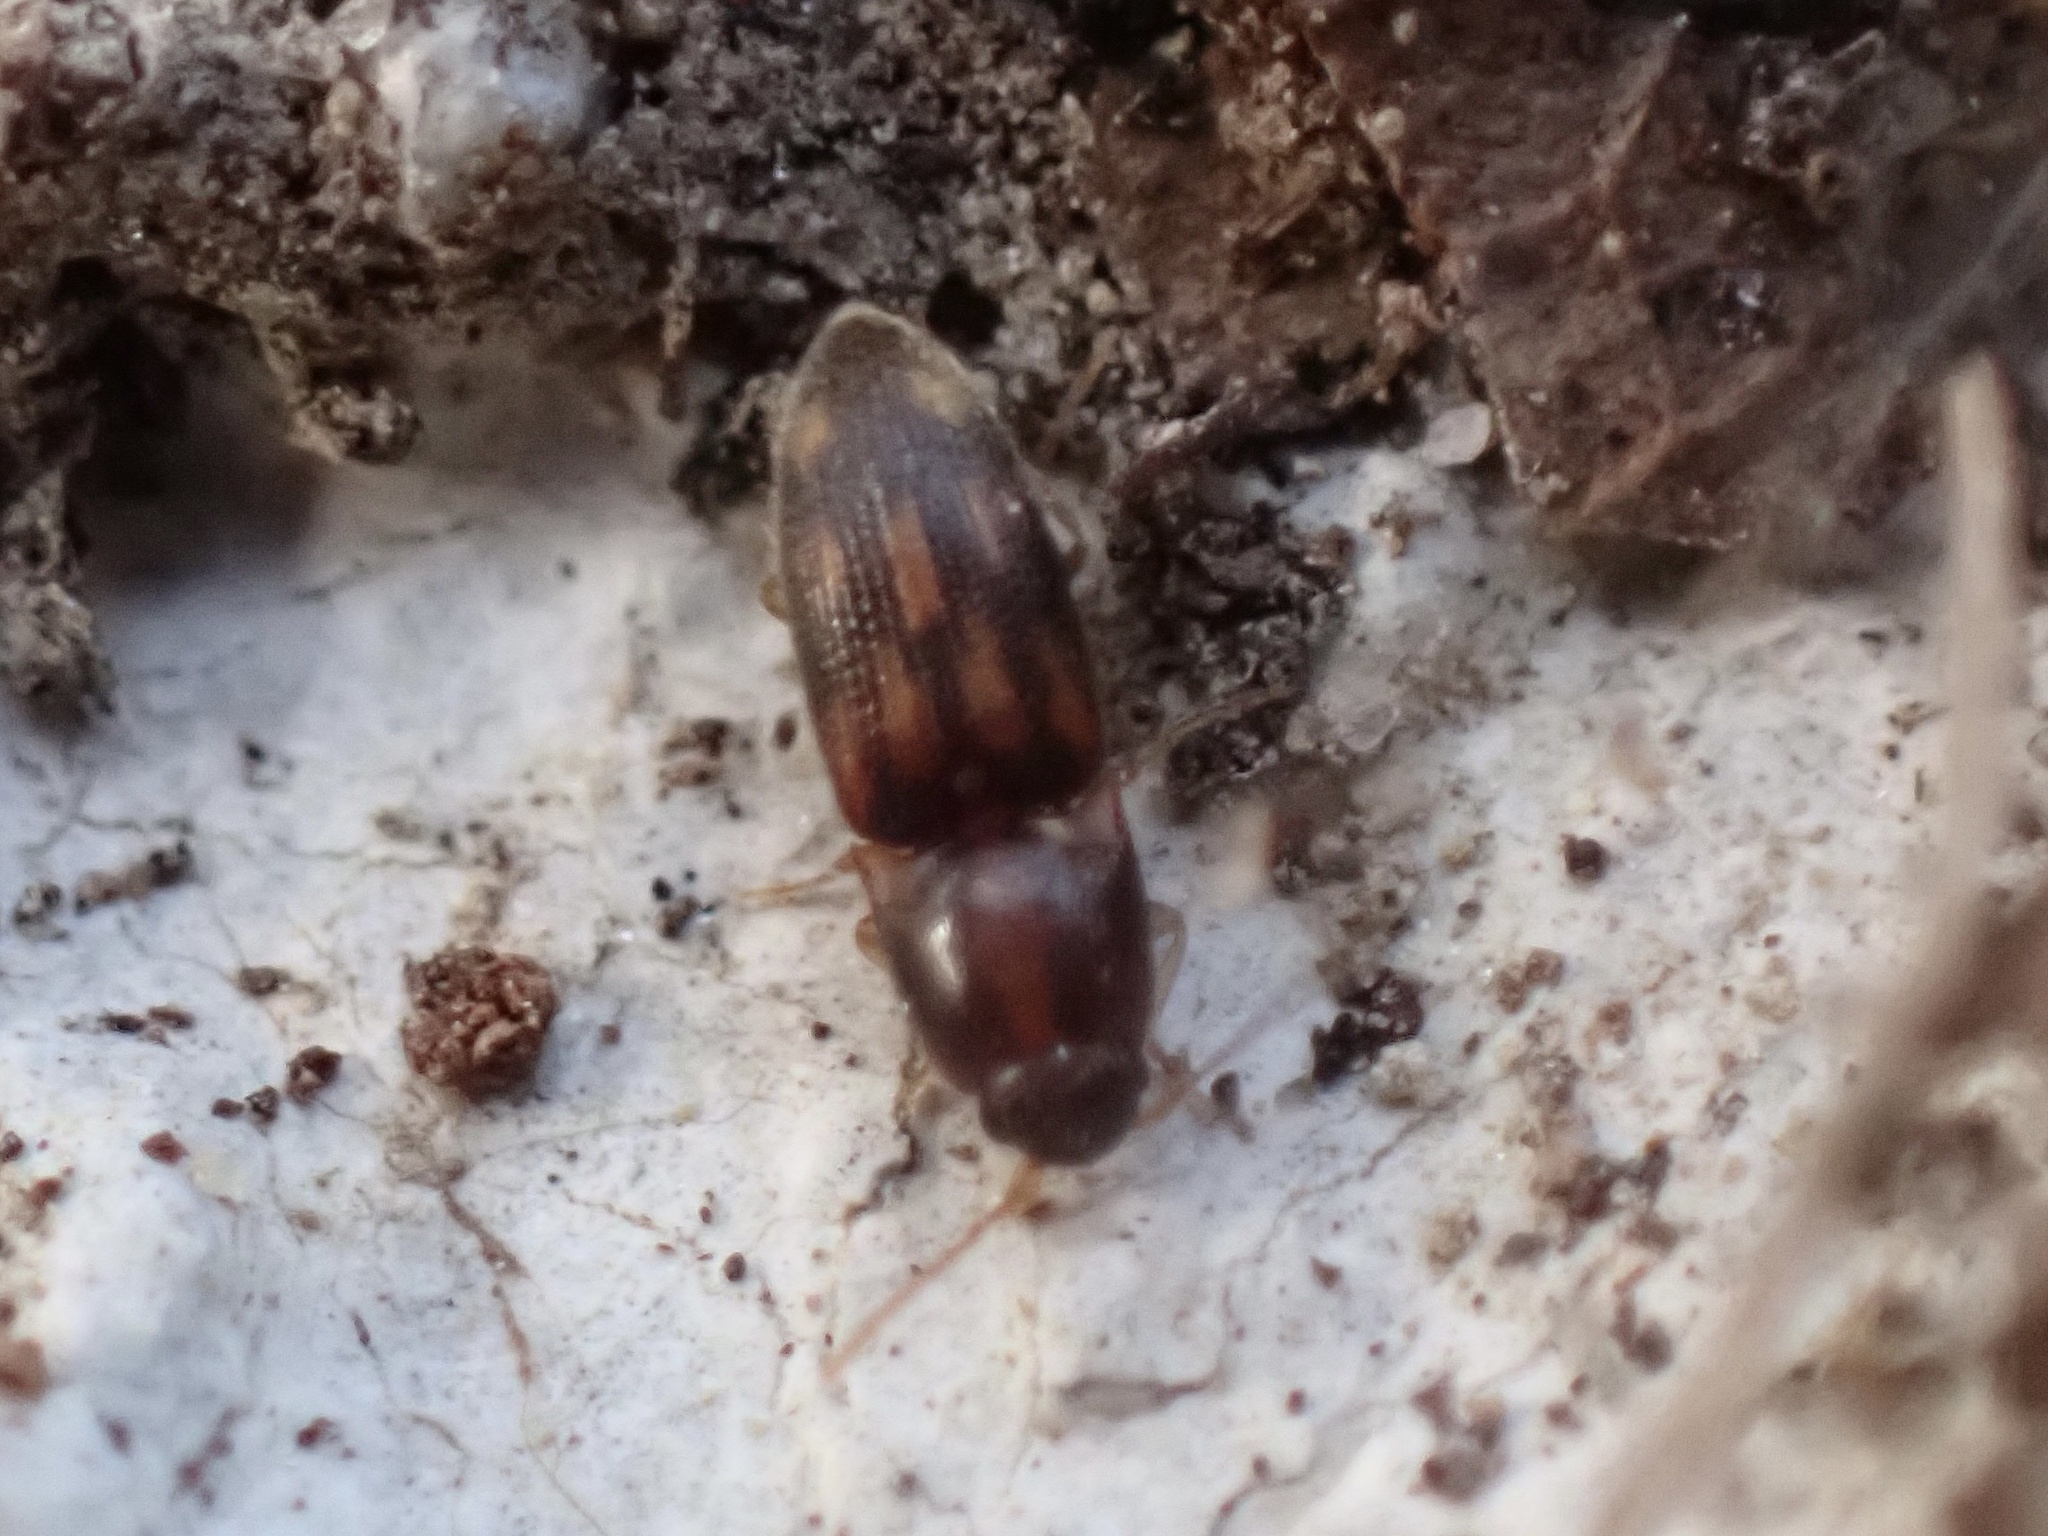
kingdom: Animalia
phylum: Arthropoda
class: Insecta
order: Coleoptera
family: Elateridae
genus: Monocrepidius
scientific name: Monocrepidius bellus
